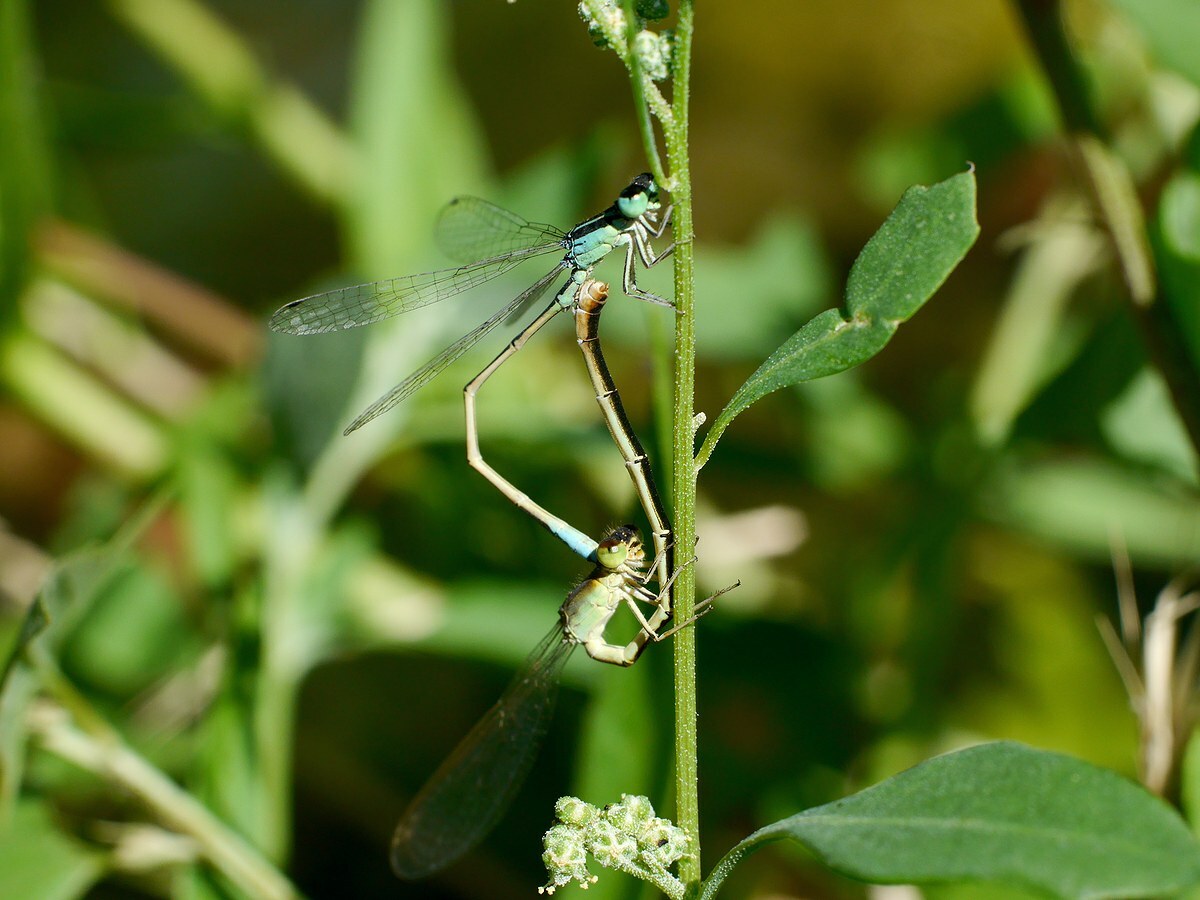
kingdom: Animalia
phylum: Arthropoda
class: Insecta
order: Odonata
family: Coenagrionidae
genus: Ischnura
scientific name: Ischnura pumilio
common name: Scarce blue-tailed damselfly
